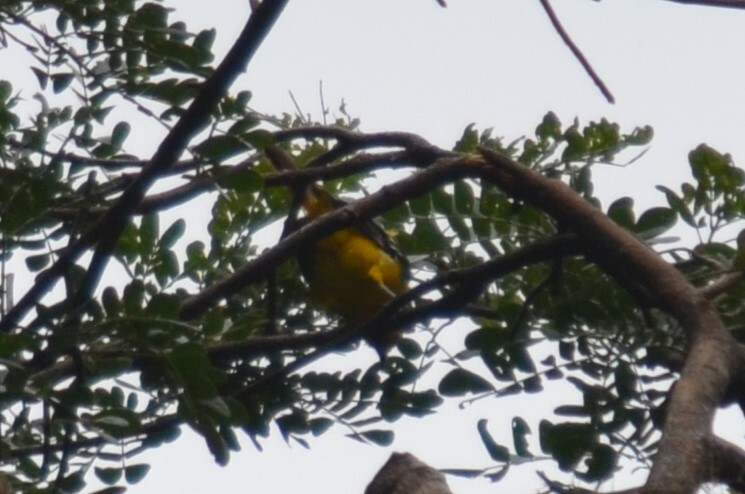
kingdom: Animalia
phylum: Chordata
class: Aves
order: Passeriformes
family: Icteridae
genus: Icterus
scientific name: Icterus pustulatus
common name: Streak-backed oriole
